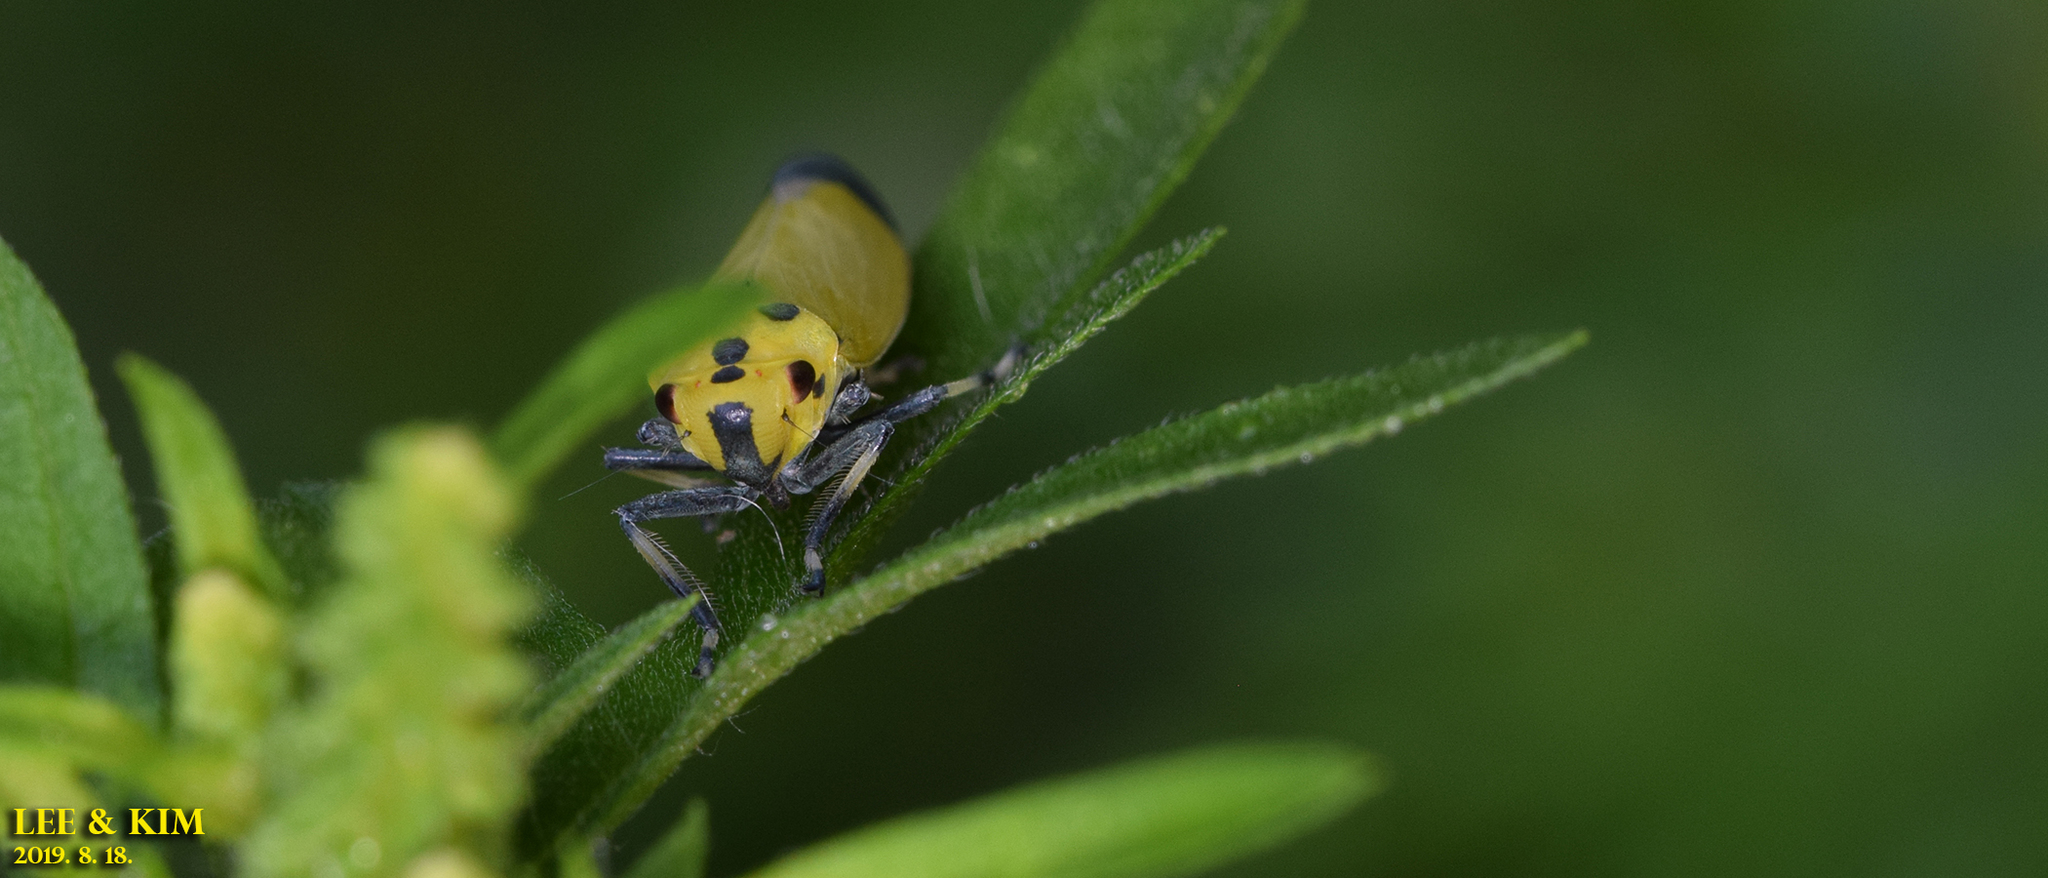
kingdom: Animalia
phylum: Arthropoda
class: Insecta
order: Hemiptera
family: Cicadellidae
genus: Bothrogonia
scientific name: Bothrogonia ferruginea
